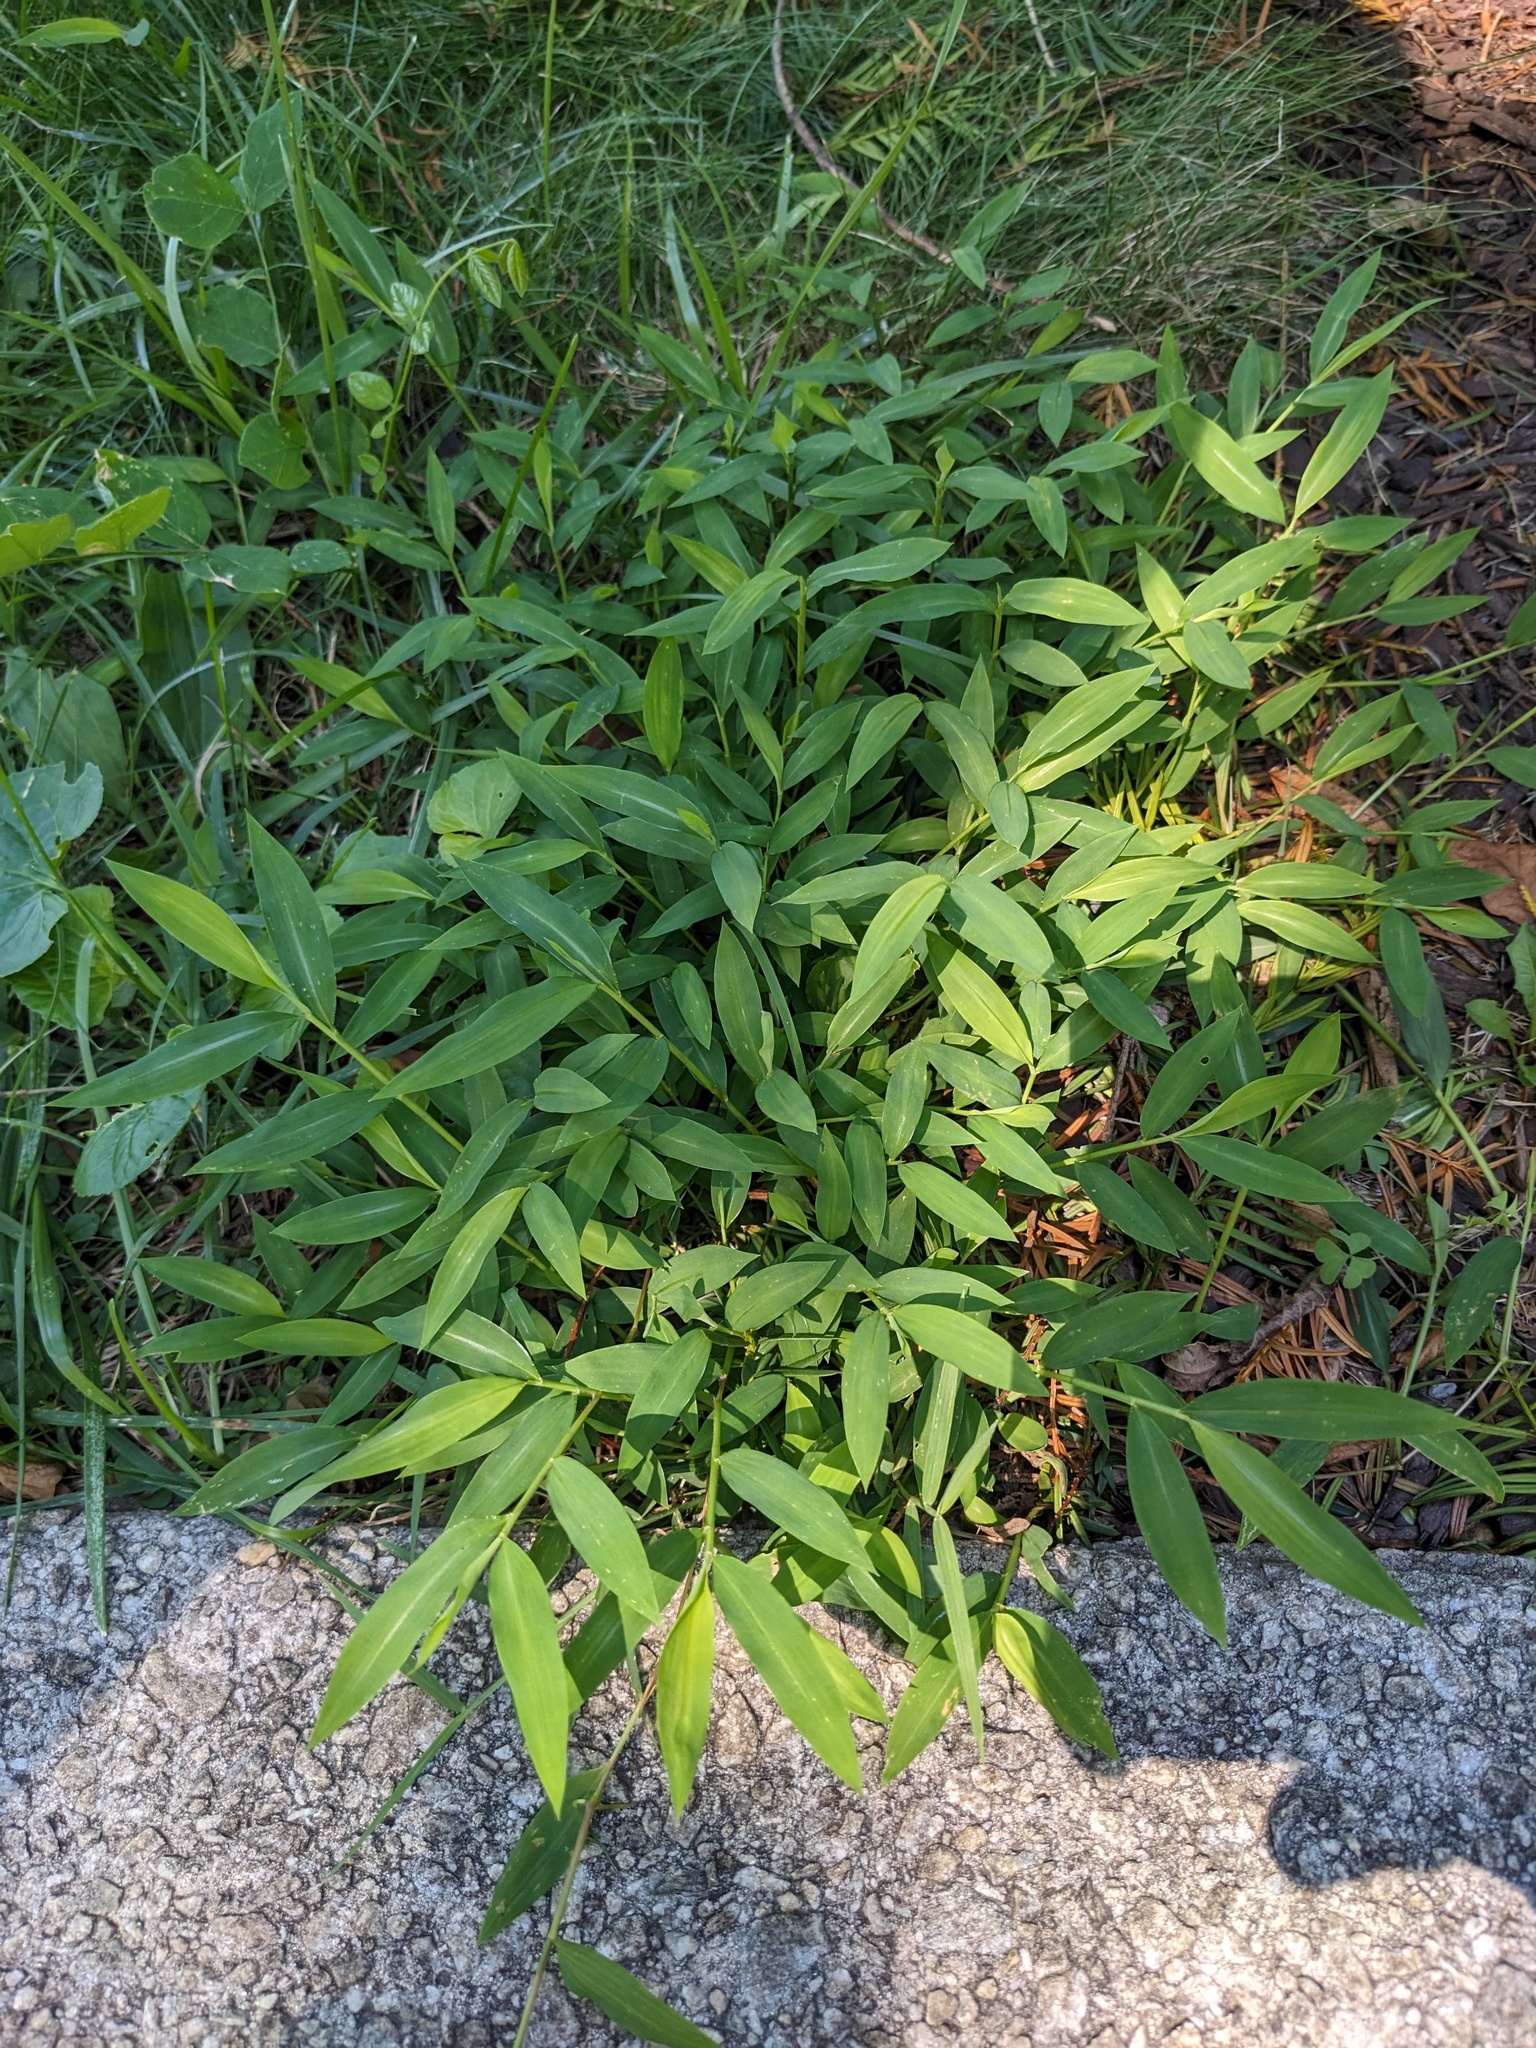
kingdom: Plantae
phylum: Tracheophyta
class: Liliopsida
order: Poales
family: Poaceae
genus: Microstegium
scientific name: Microstegium vimineum
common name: Japanese stiltgrass
